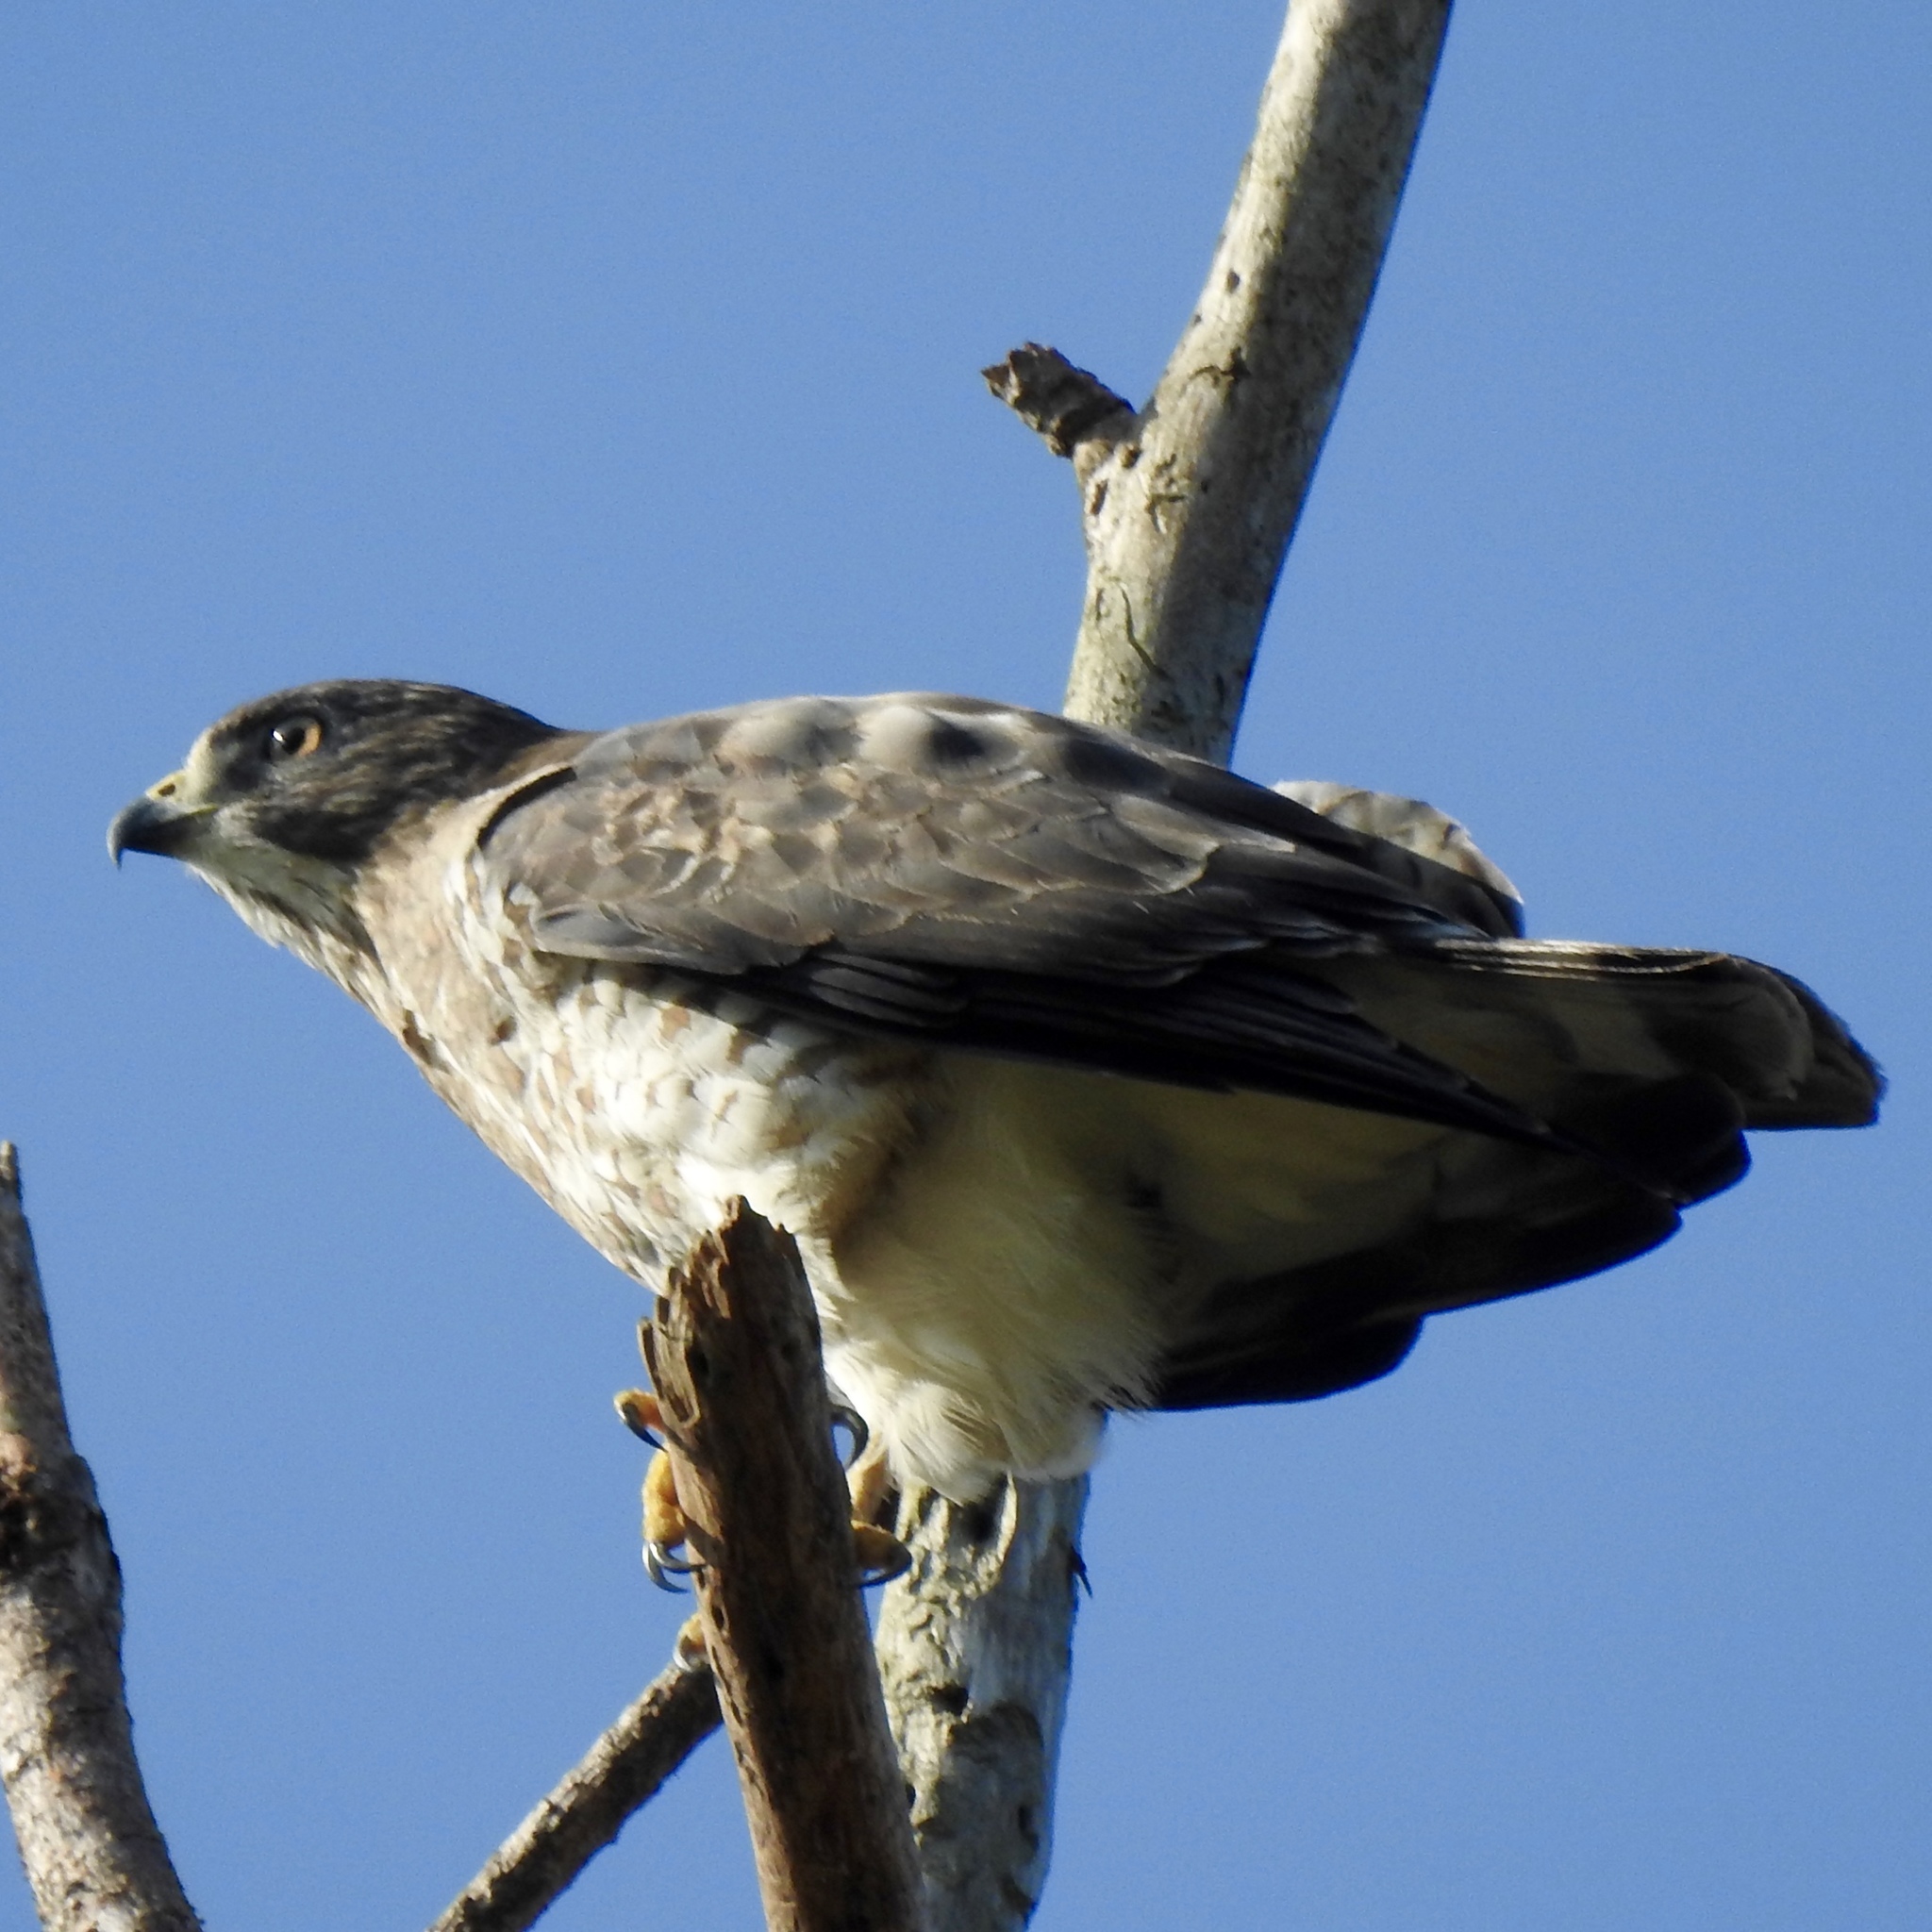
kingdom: Animalia
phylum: Chordata
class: Aves
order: Accipitriformes
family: Accipitridae
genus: Buteo
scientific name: Buteo platypterus
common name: Broad-winged hawk
